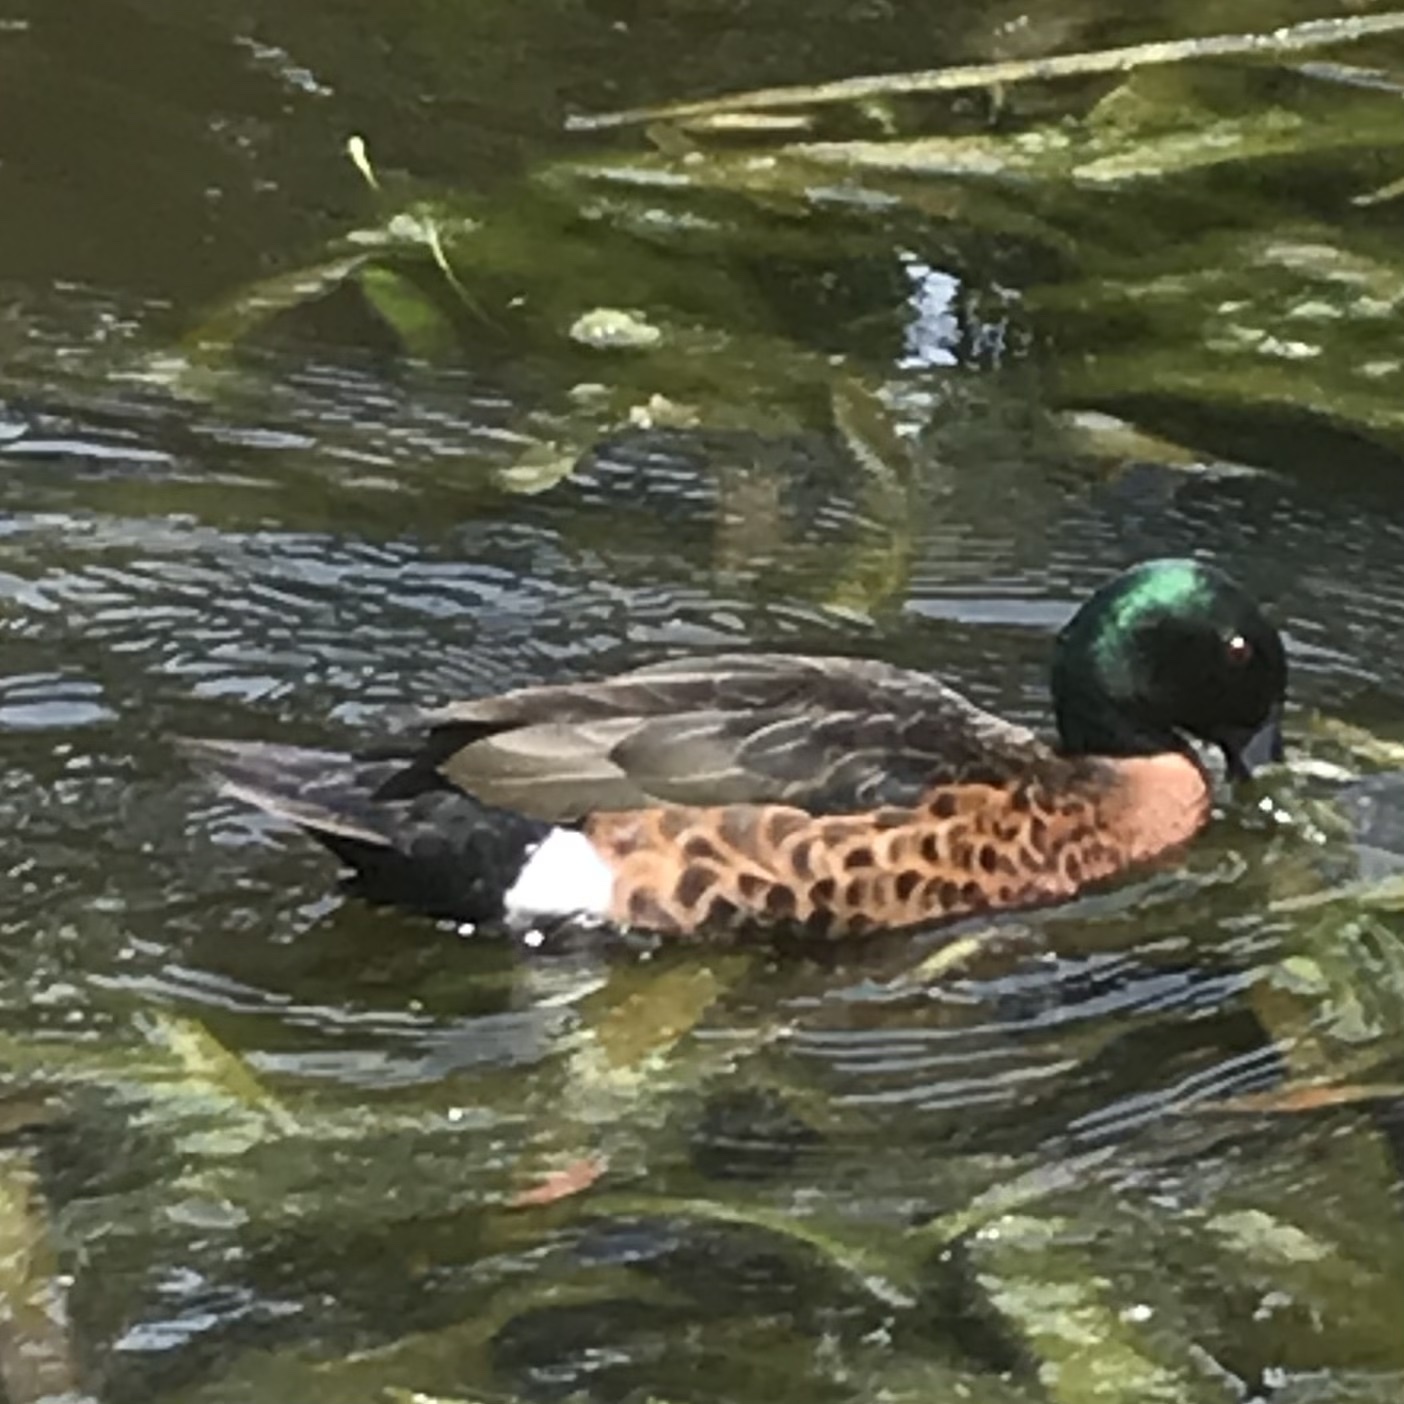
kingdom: Animalia
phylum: Chordata
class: Aves
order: Anseriformes
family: Anatidae
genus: Anas
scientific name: Anas castanea
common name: Chestnut teal
